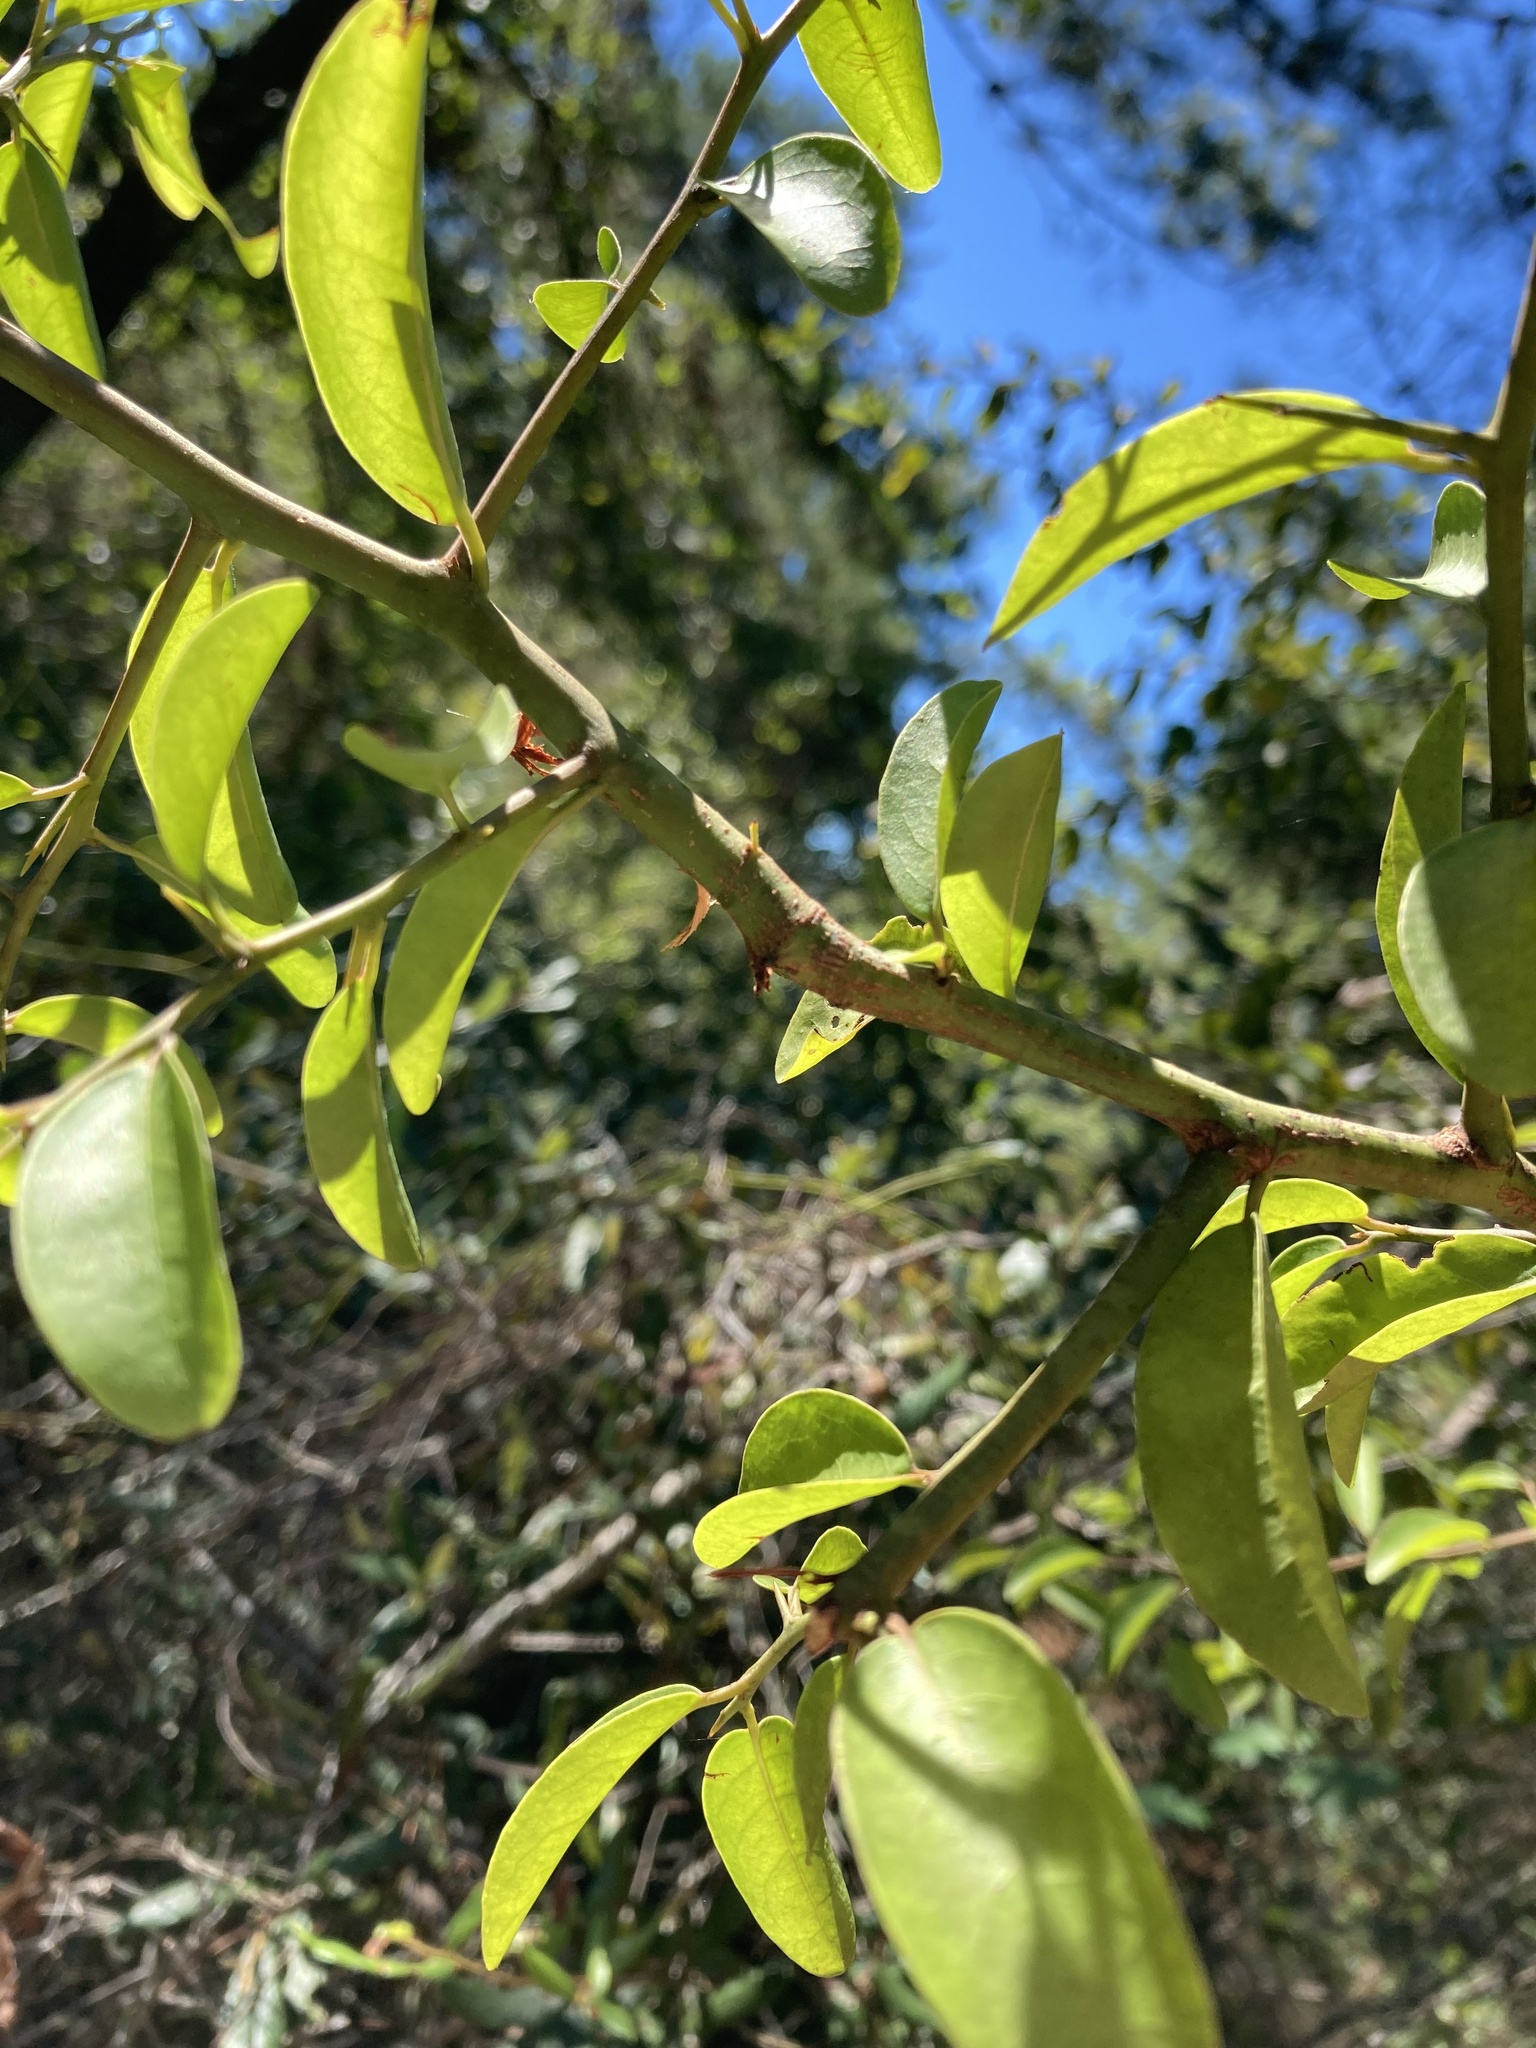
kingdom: Plantae
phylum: Tracheophyta
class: Magnoliopsida
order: Santalales
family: Ximeniaceae
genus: Ximenia
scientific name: Ximenia americana
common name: Tallowwood
